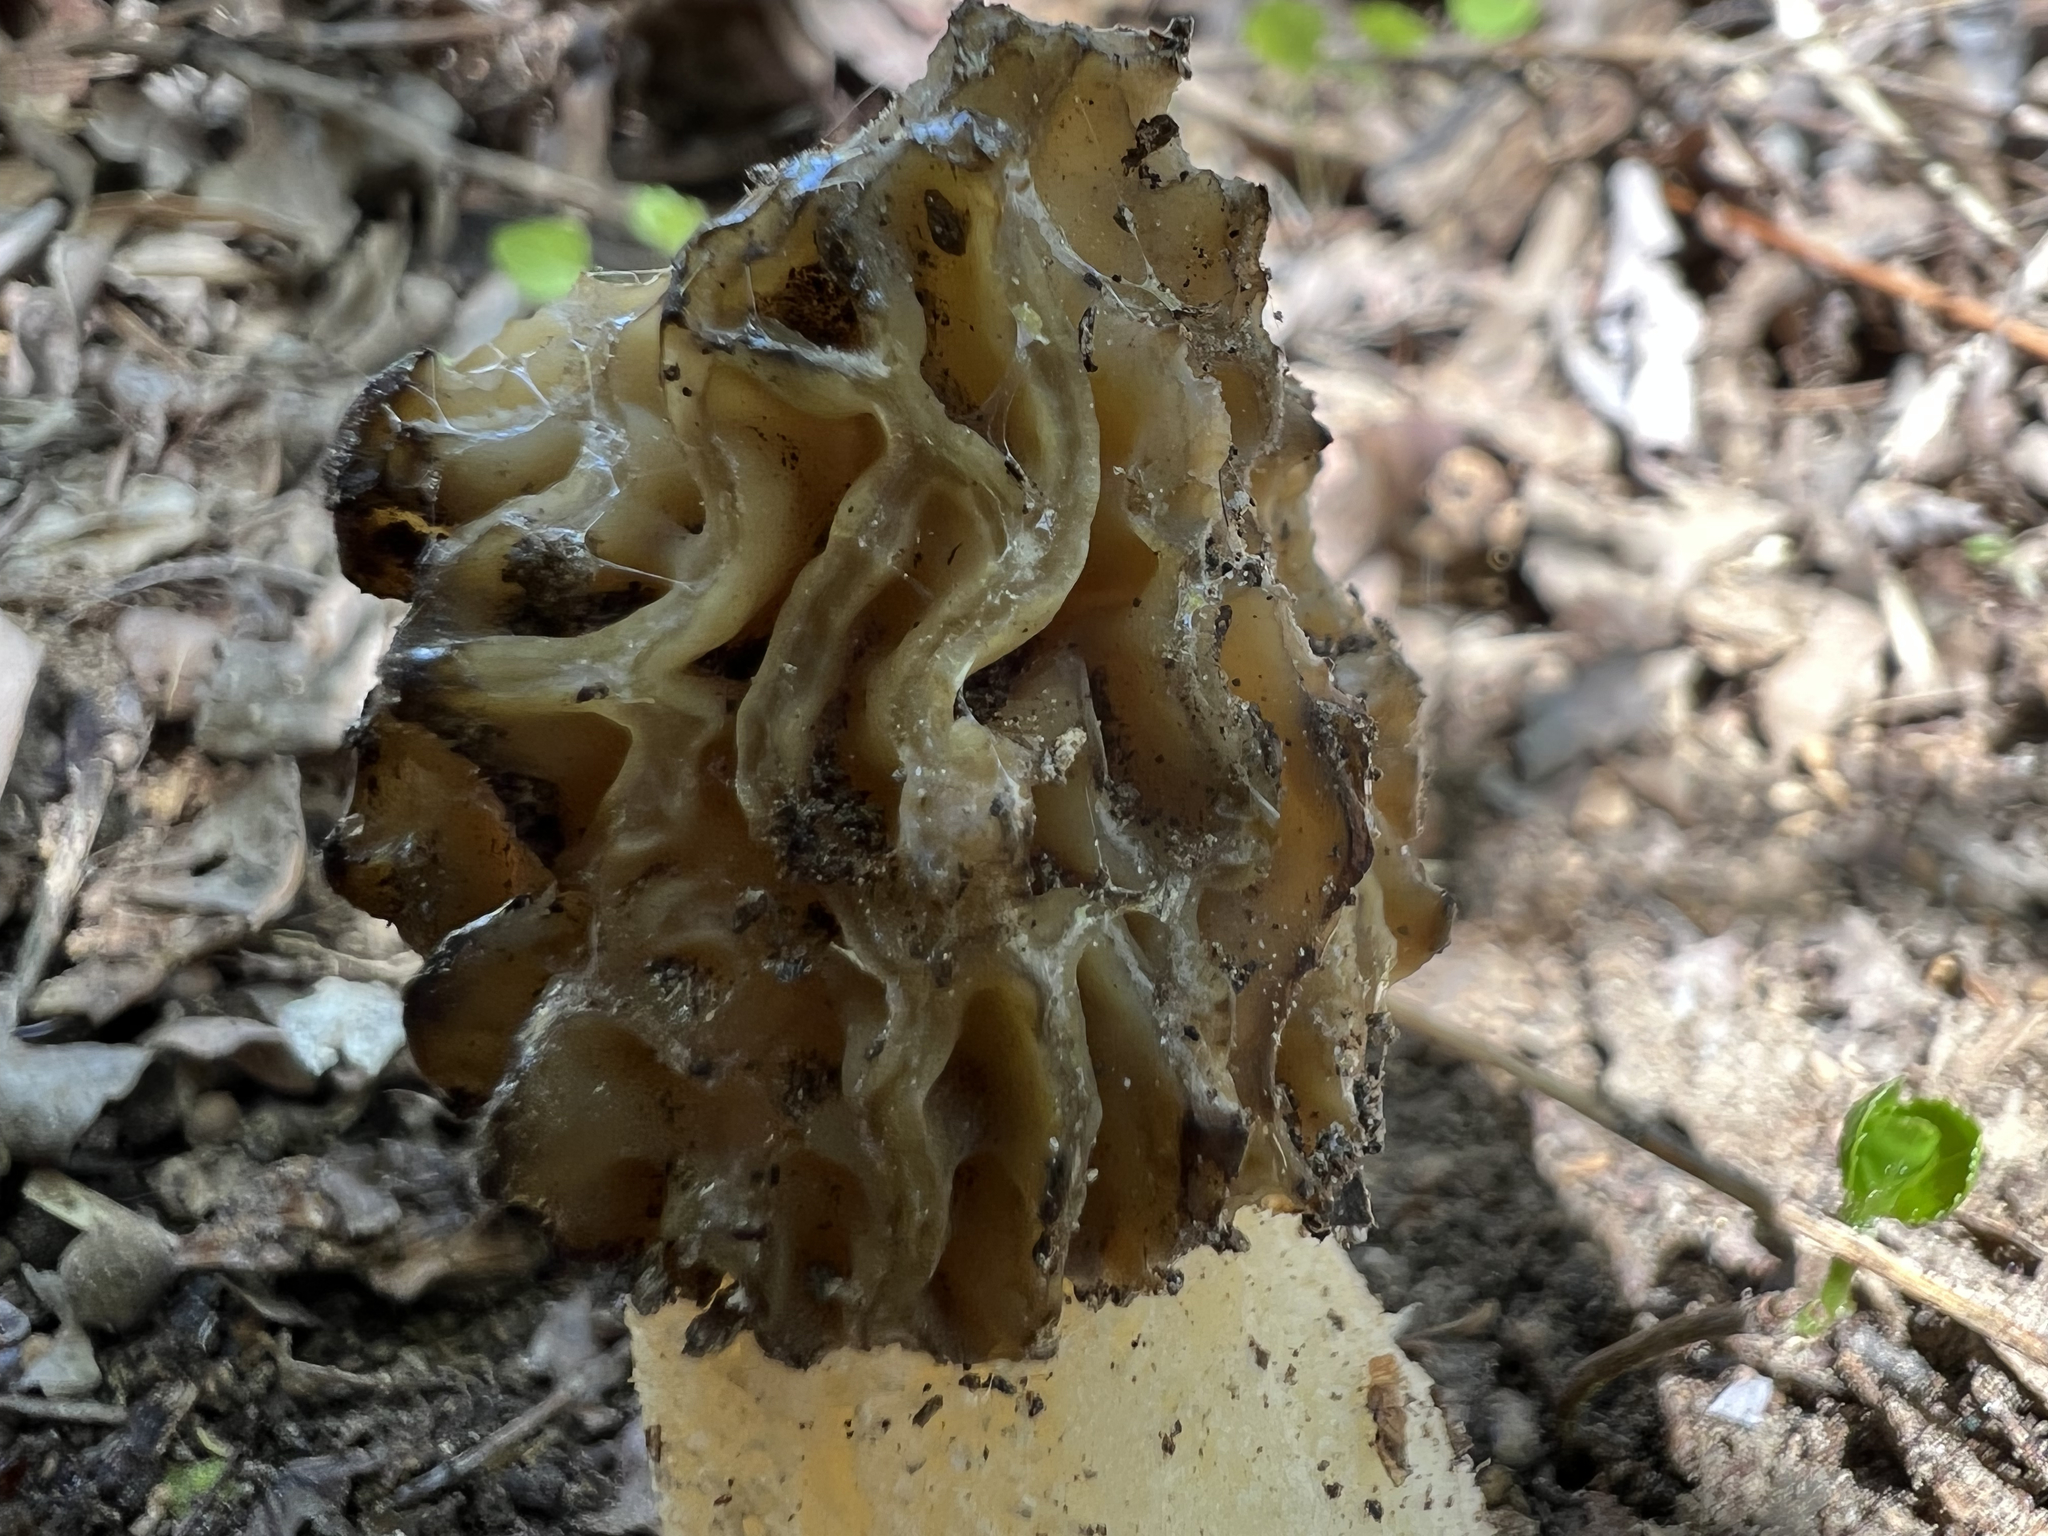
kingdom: Fungi
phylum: Ascomycota
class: Pezizomycetes
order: Pezizales
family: Morchellaceae
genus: Morchella
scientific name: Morchella punctipes
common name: Half-free morel
